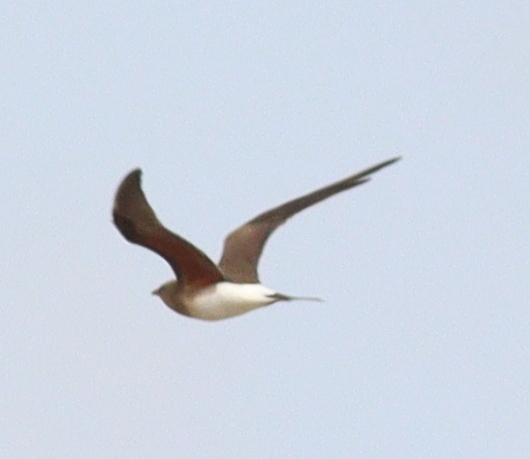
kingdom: Animalia
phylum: Chordata
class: Aves
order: Charadriiformes
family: Glareolidae
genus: Glareola
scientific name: Glareola pratincola
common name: Collared pratincole
